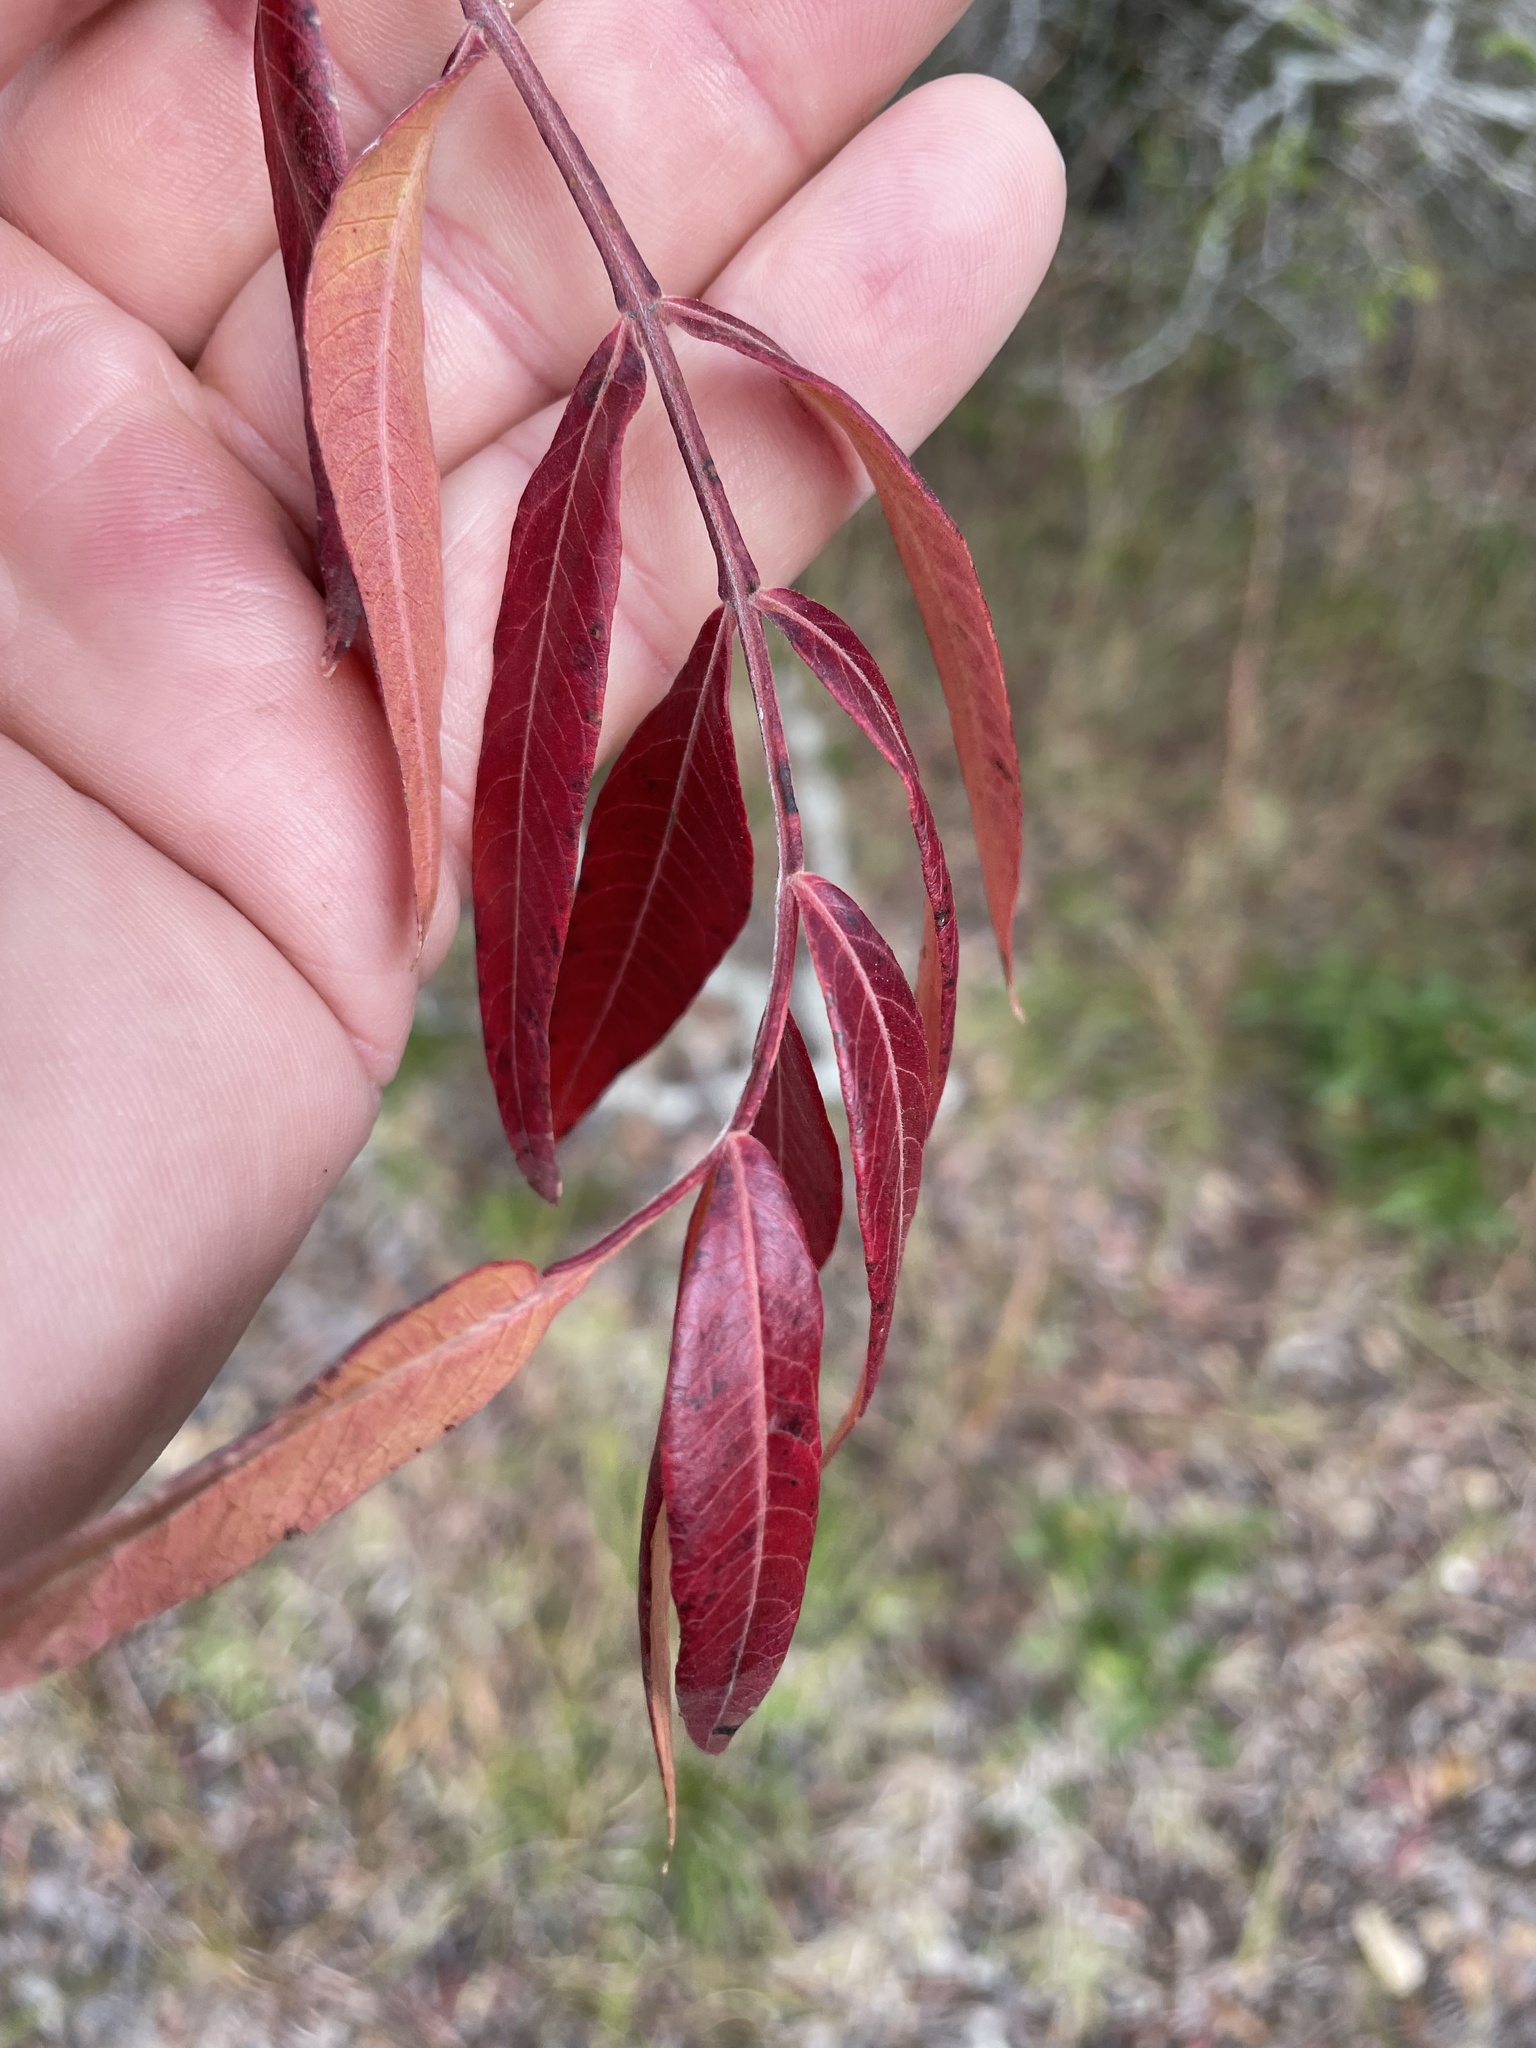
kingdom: Plantae
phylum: Tracheophyta
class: Magnoliopsida
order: Sapindales
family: Anacardiaceae
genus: Rhus
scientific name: Rhus lanceolata
